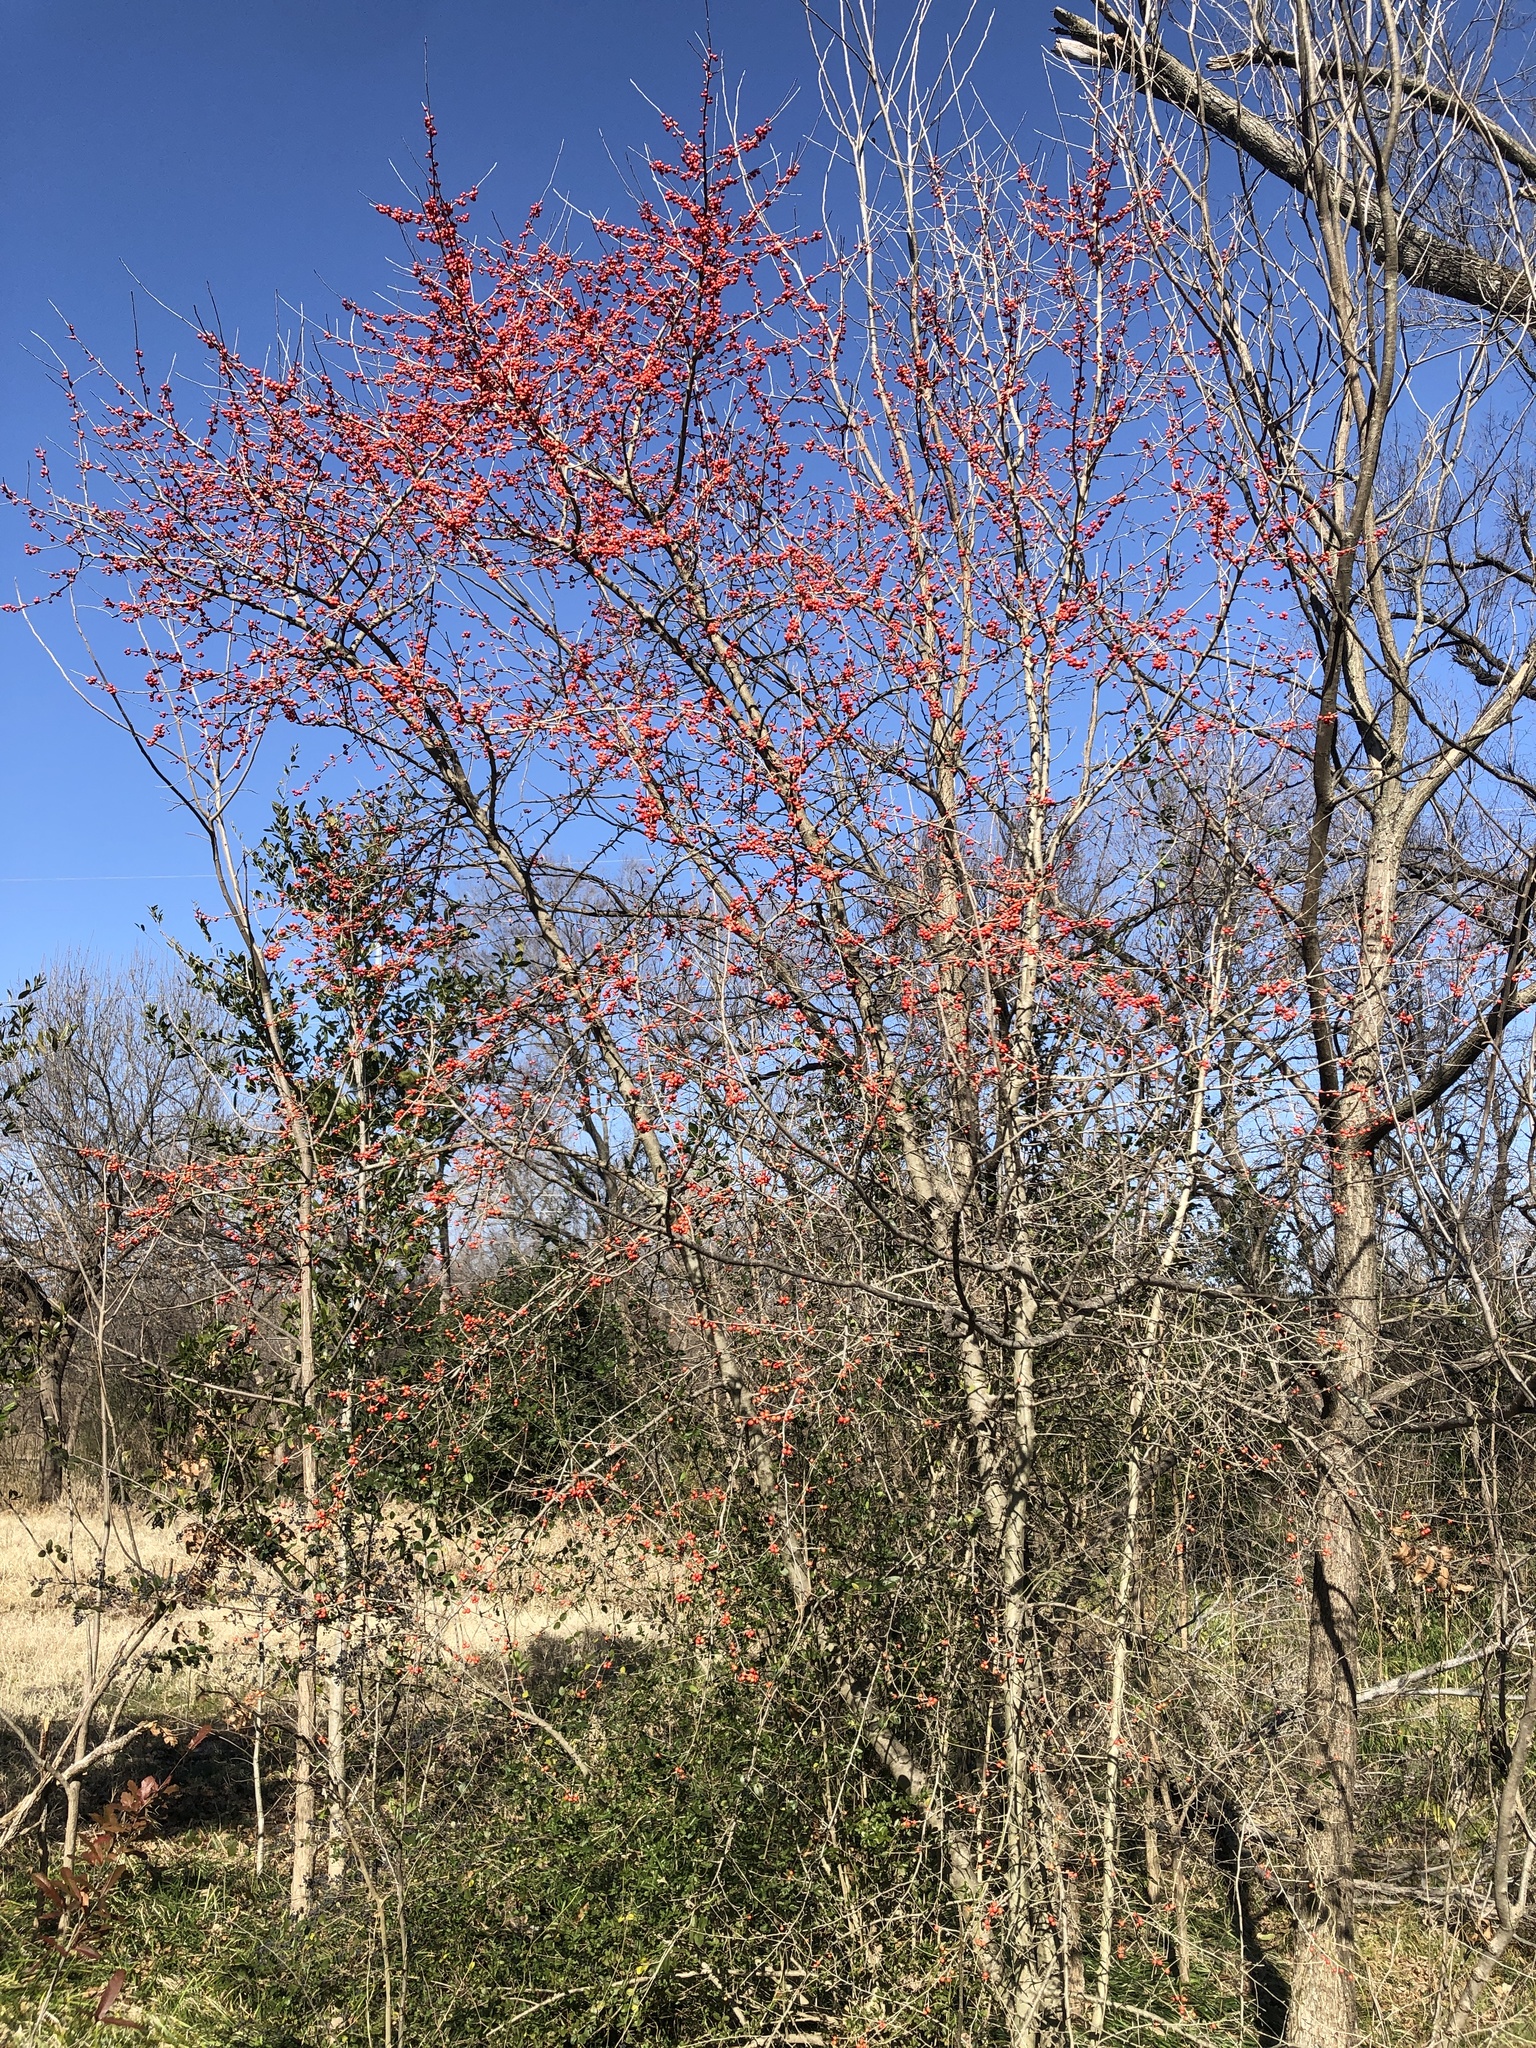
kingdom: Plantae
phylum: Tracheophyta
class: Magnoliopsida
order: Aquifoliales
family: Aquifoliaceae
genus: Ilex
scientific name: Ilex decidua
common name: Possum-haw
